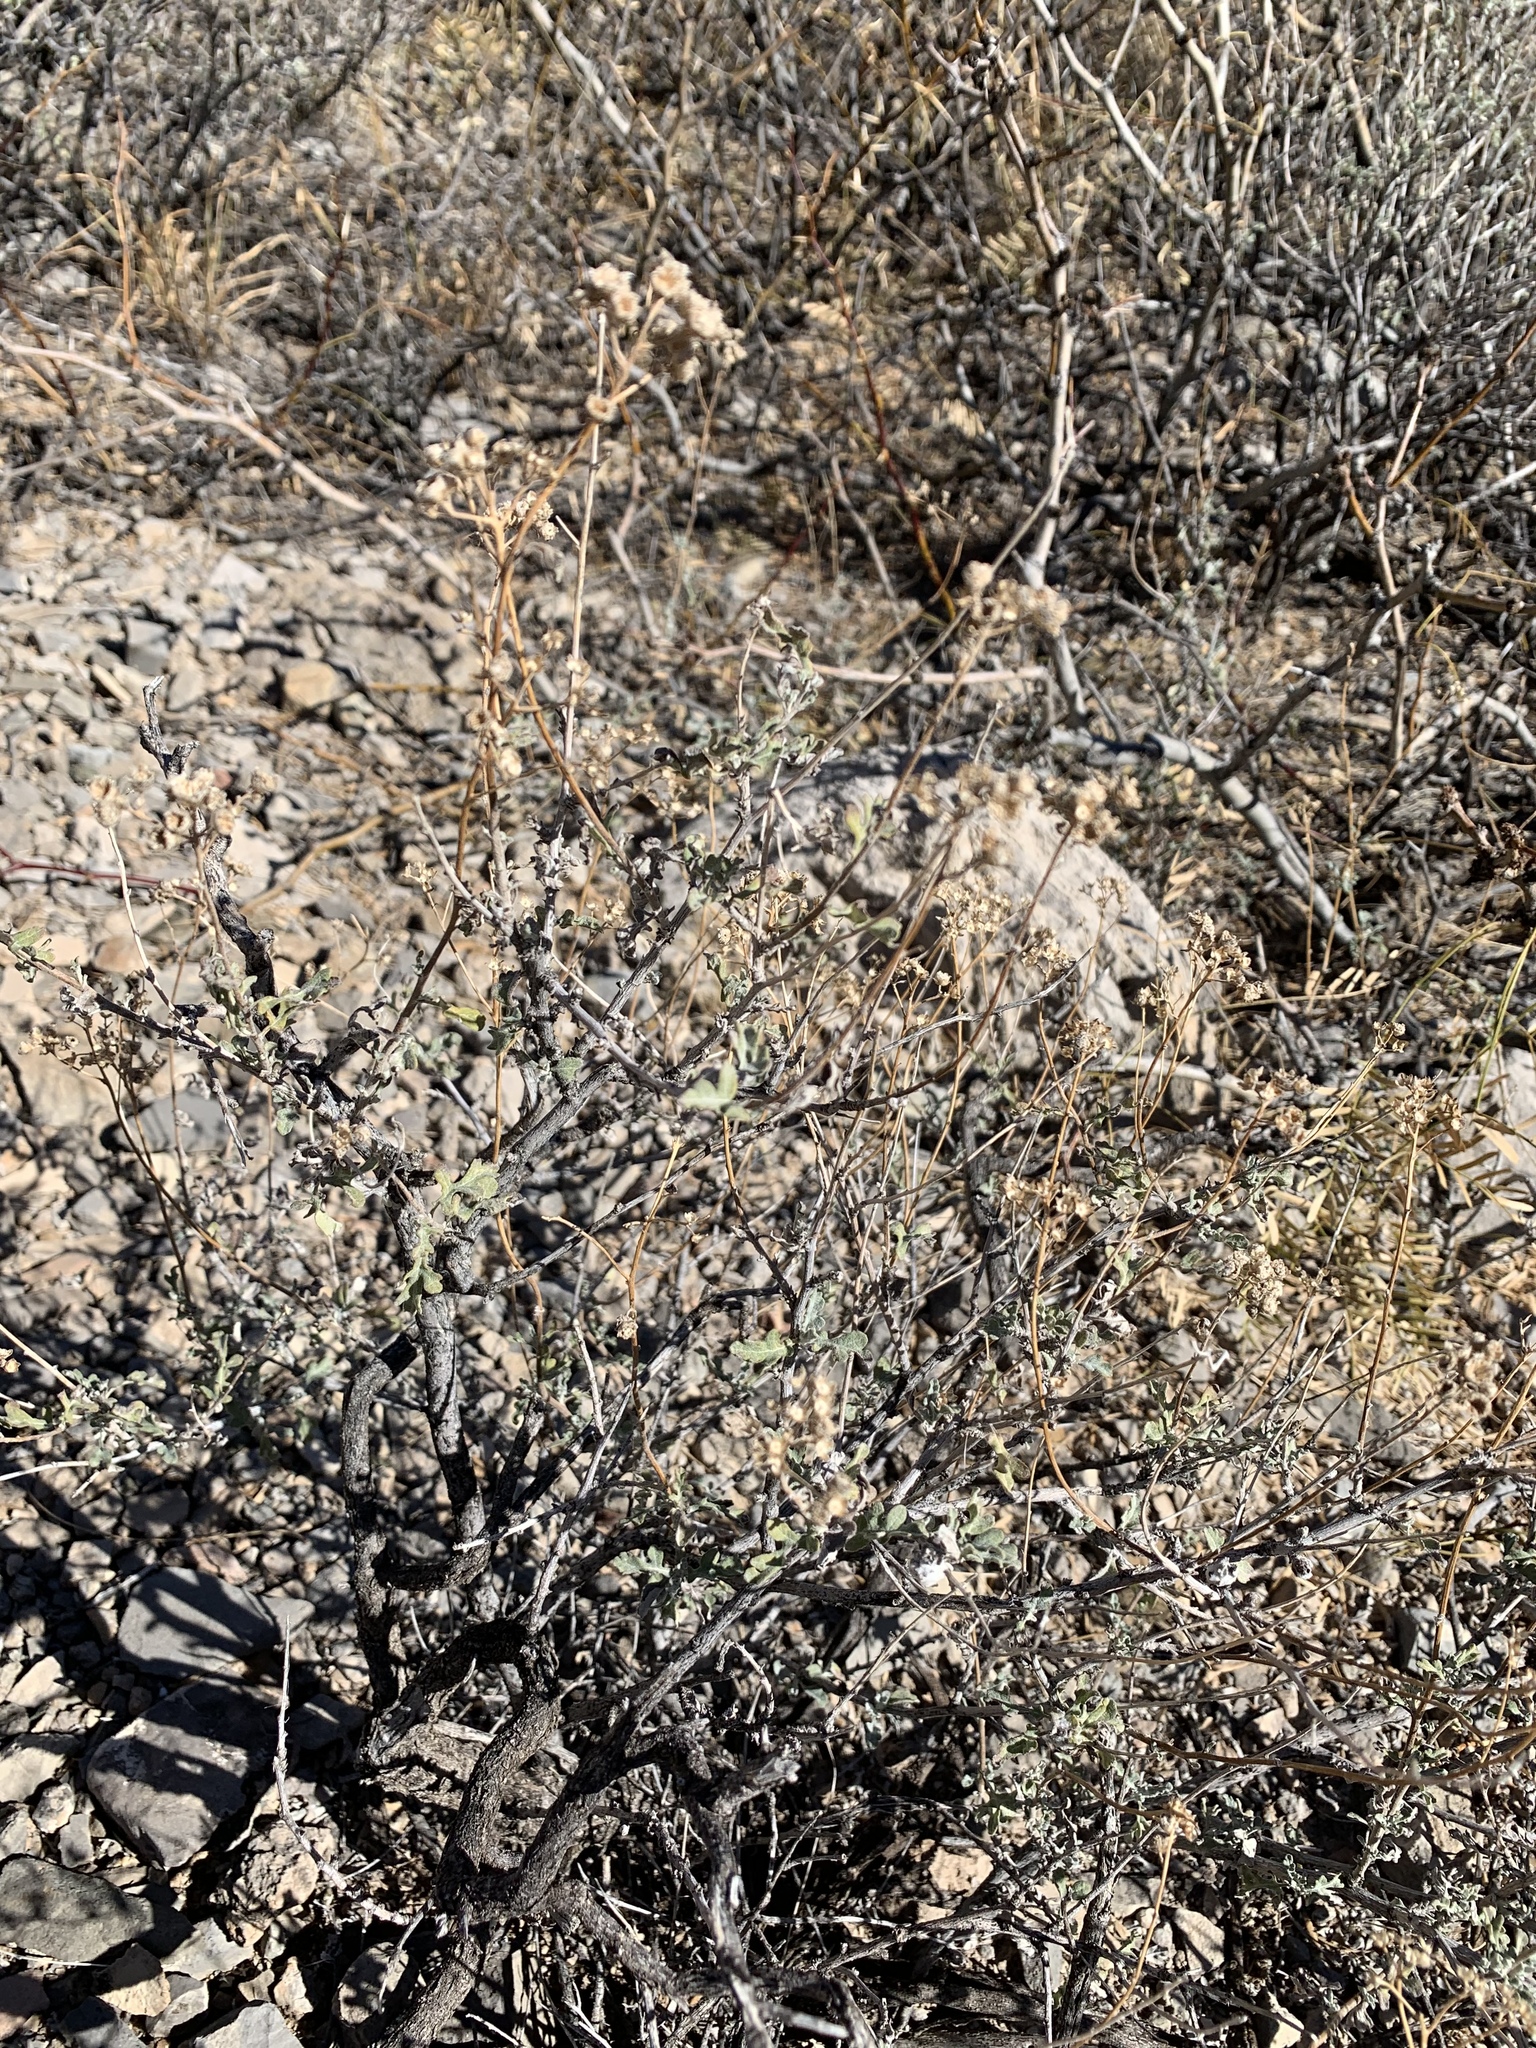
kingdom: Plantae
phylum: Tracheophyta
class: Magnoliopsida
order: Asterales
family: Asteraceae
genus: Parthenium
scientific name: Parthenium incanum
